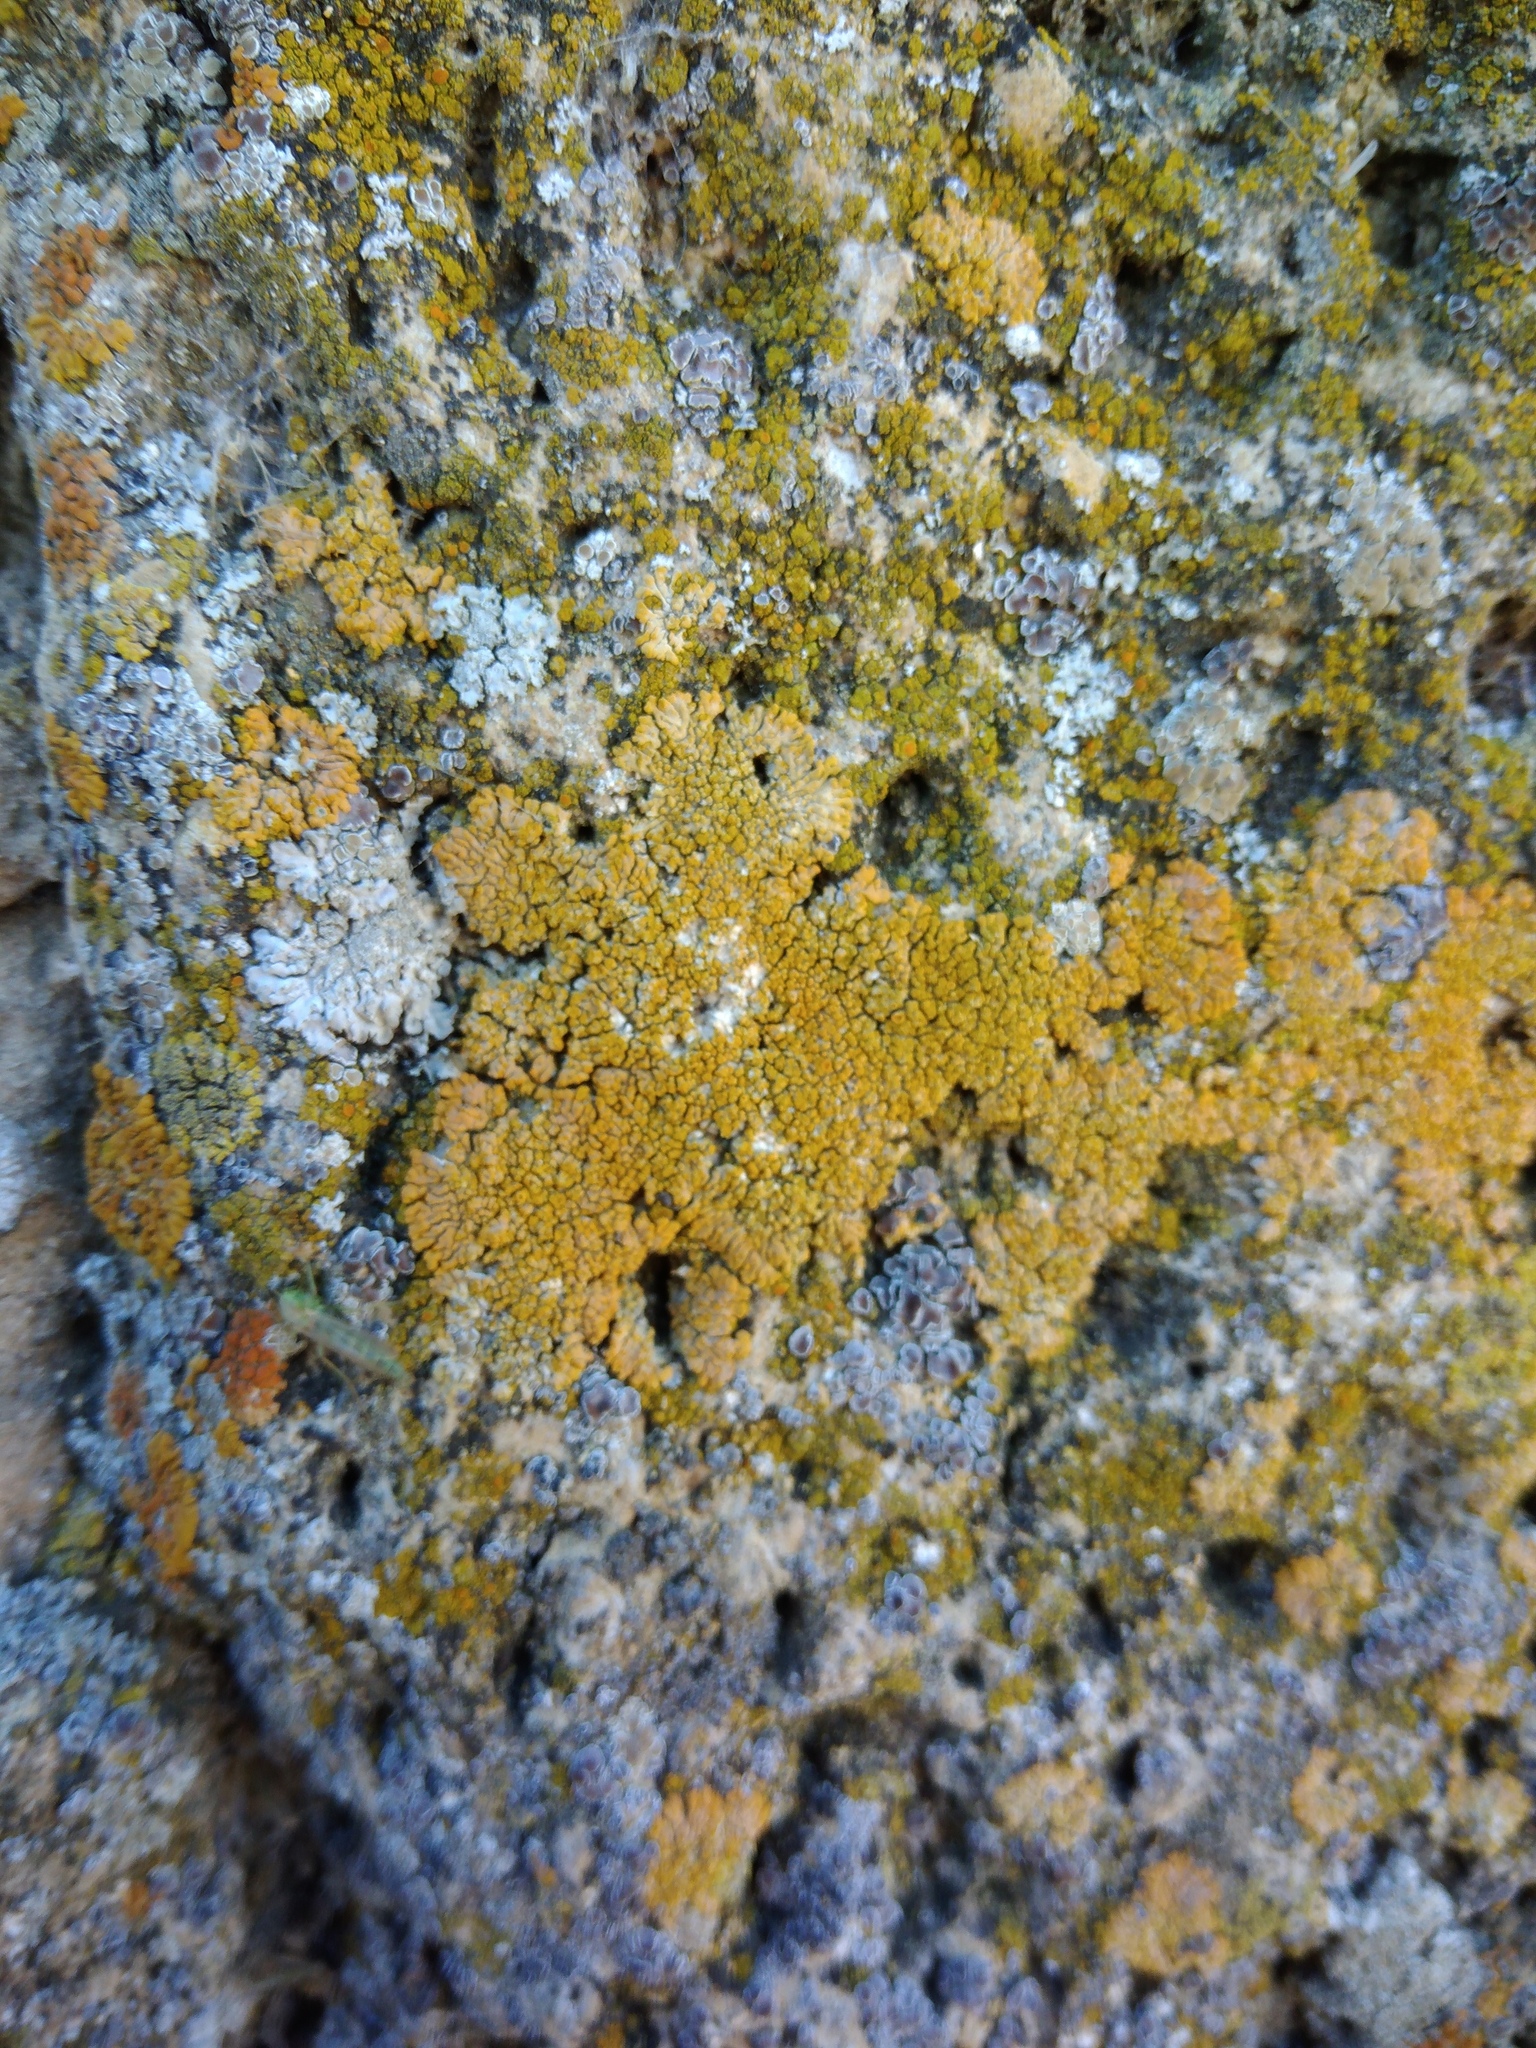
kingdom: Fungi
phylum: Ascomycota
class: Lecanoromycetes
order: Teloschistales
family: Teloschistaceae
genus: Calogaya
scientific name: Calogaya decipiens
